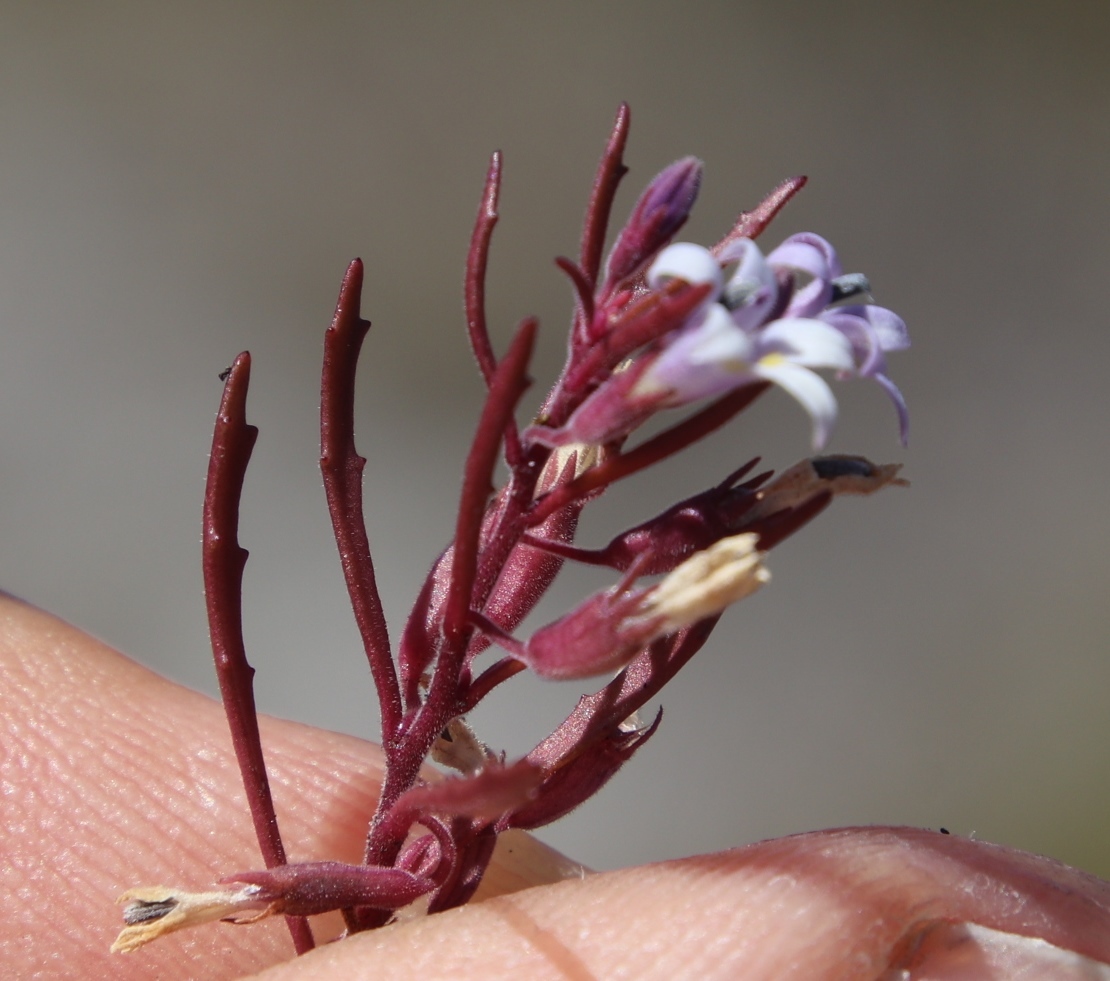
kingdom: Plantae
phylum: Tracheophyta
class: Magnoliopsida
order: Asterales
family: Campanulaceae
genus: Wimmerella
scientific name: Wimmerella secunda
